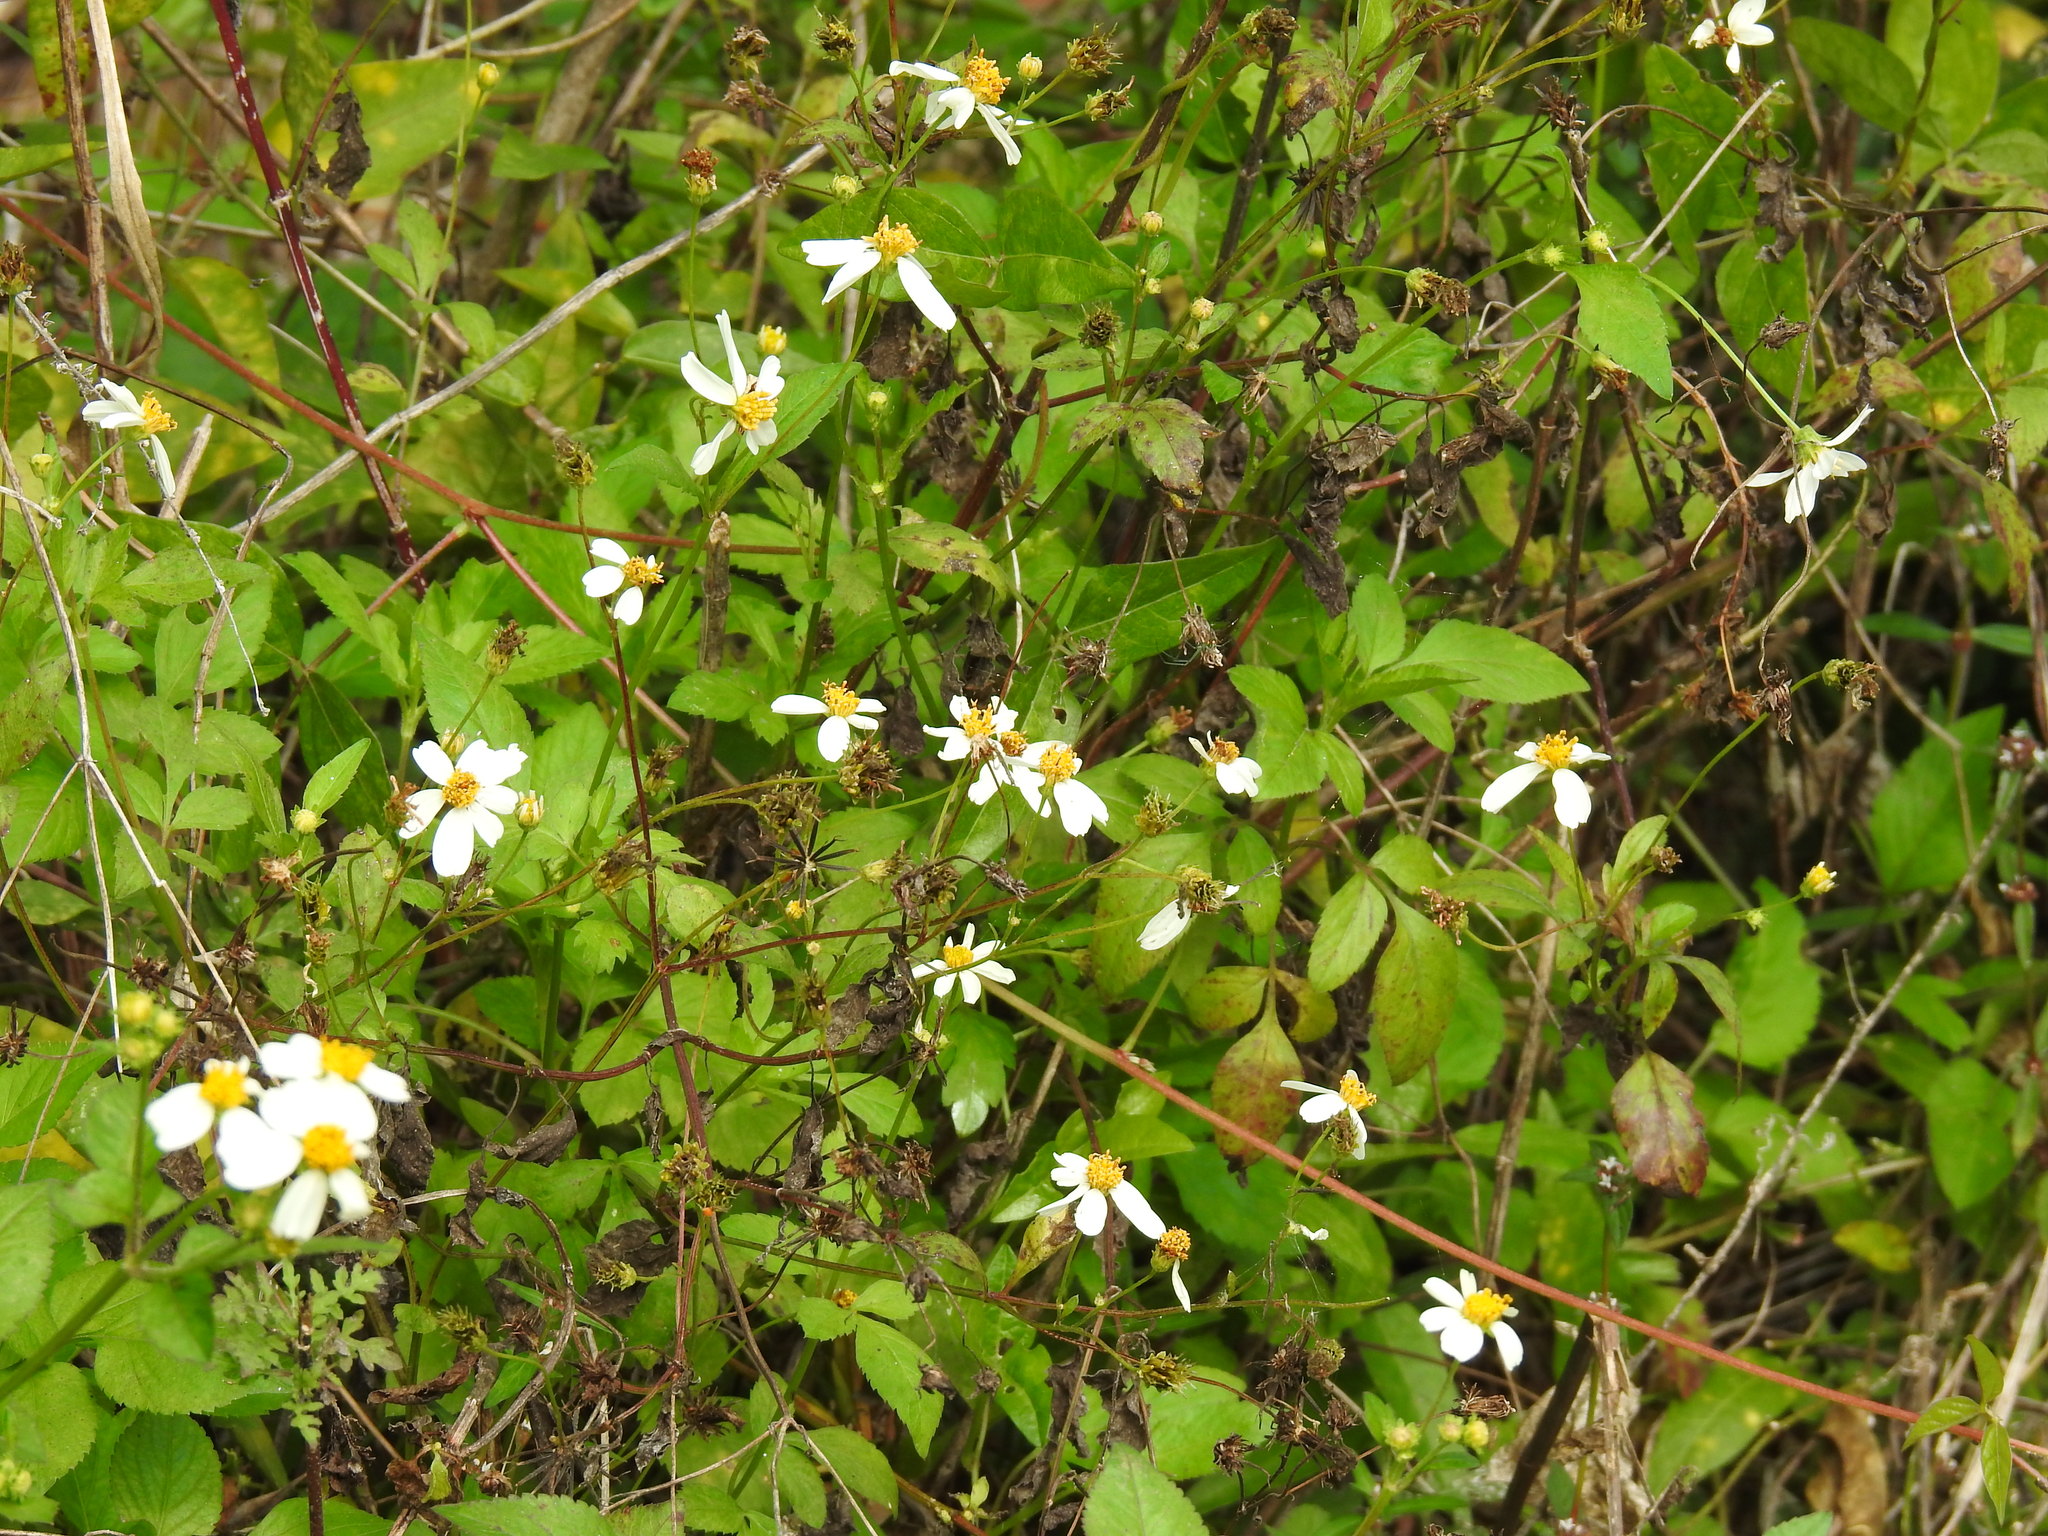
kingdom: Plantae
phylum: Tracheophyta
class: Magnoliopsida
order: Asterales
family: Asteraceae
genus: Bidens
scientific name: Bidens alba
